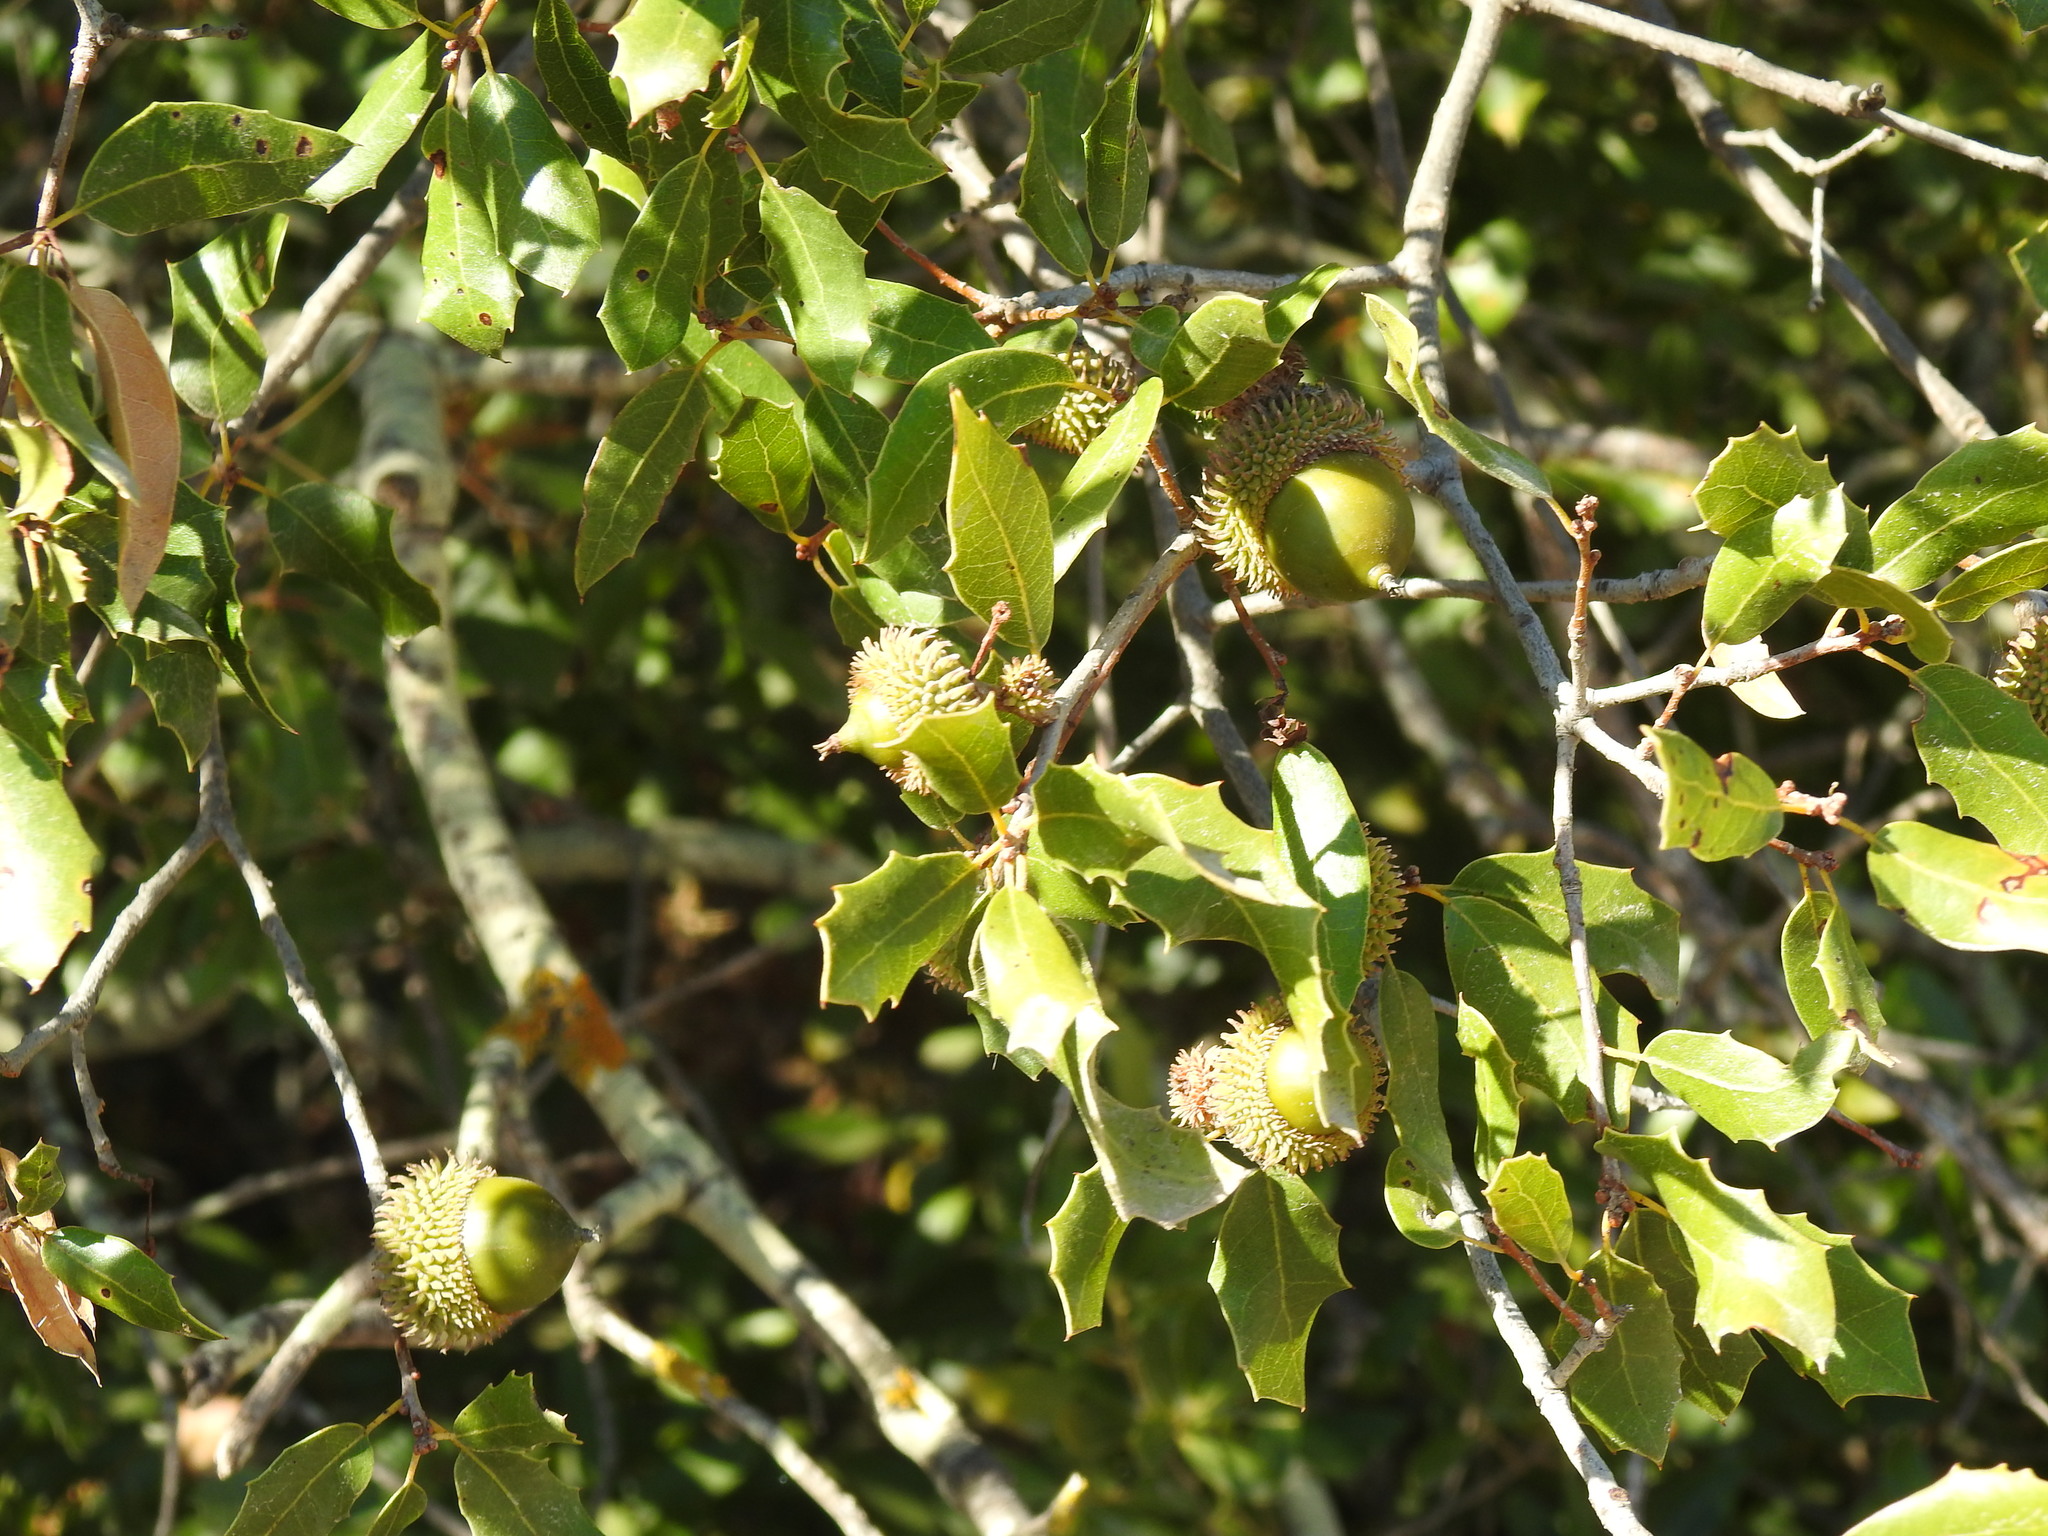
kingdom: Plantae
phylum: Tracheophyta
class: Magnoliopsida
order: Fagales
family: Fagaceae
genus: Quercus
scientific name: Quercus coccifera
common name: Kermes oak
